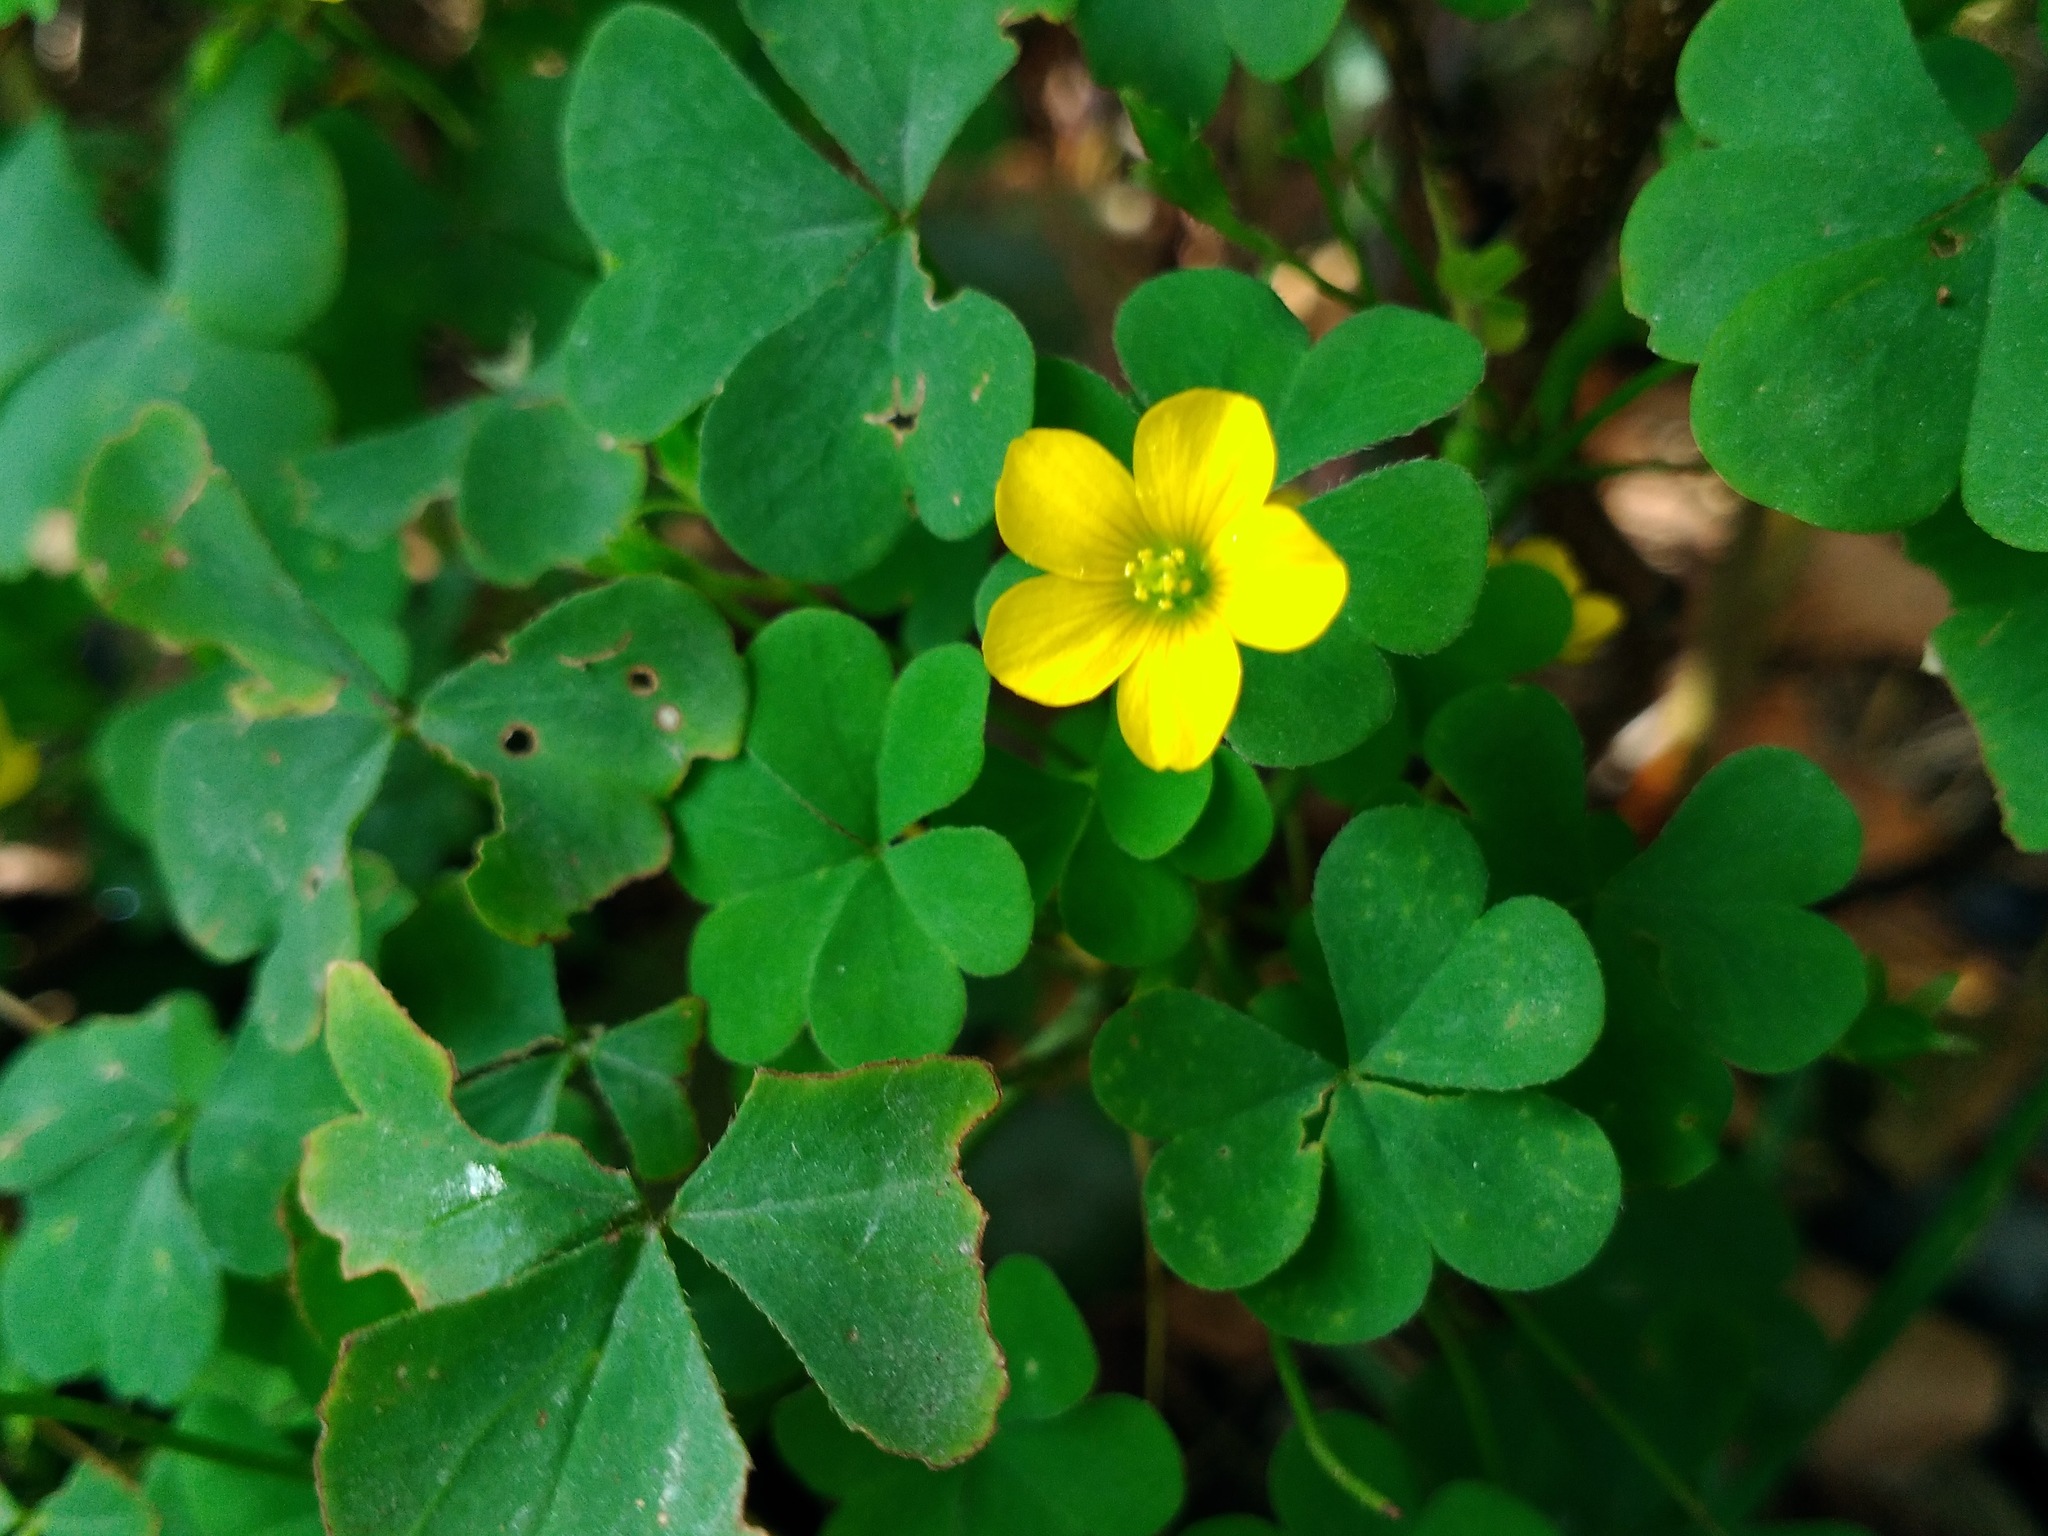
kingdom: Plantae
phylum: Tracheophyta
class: Magnoliopsida
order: Oxalidales
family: Oxalidaceae
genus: Oxalis
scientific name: Oxalis stricta
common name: Upright yellow-sorrel
